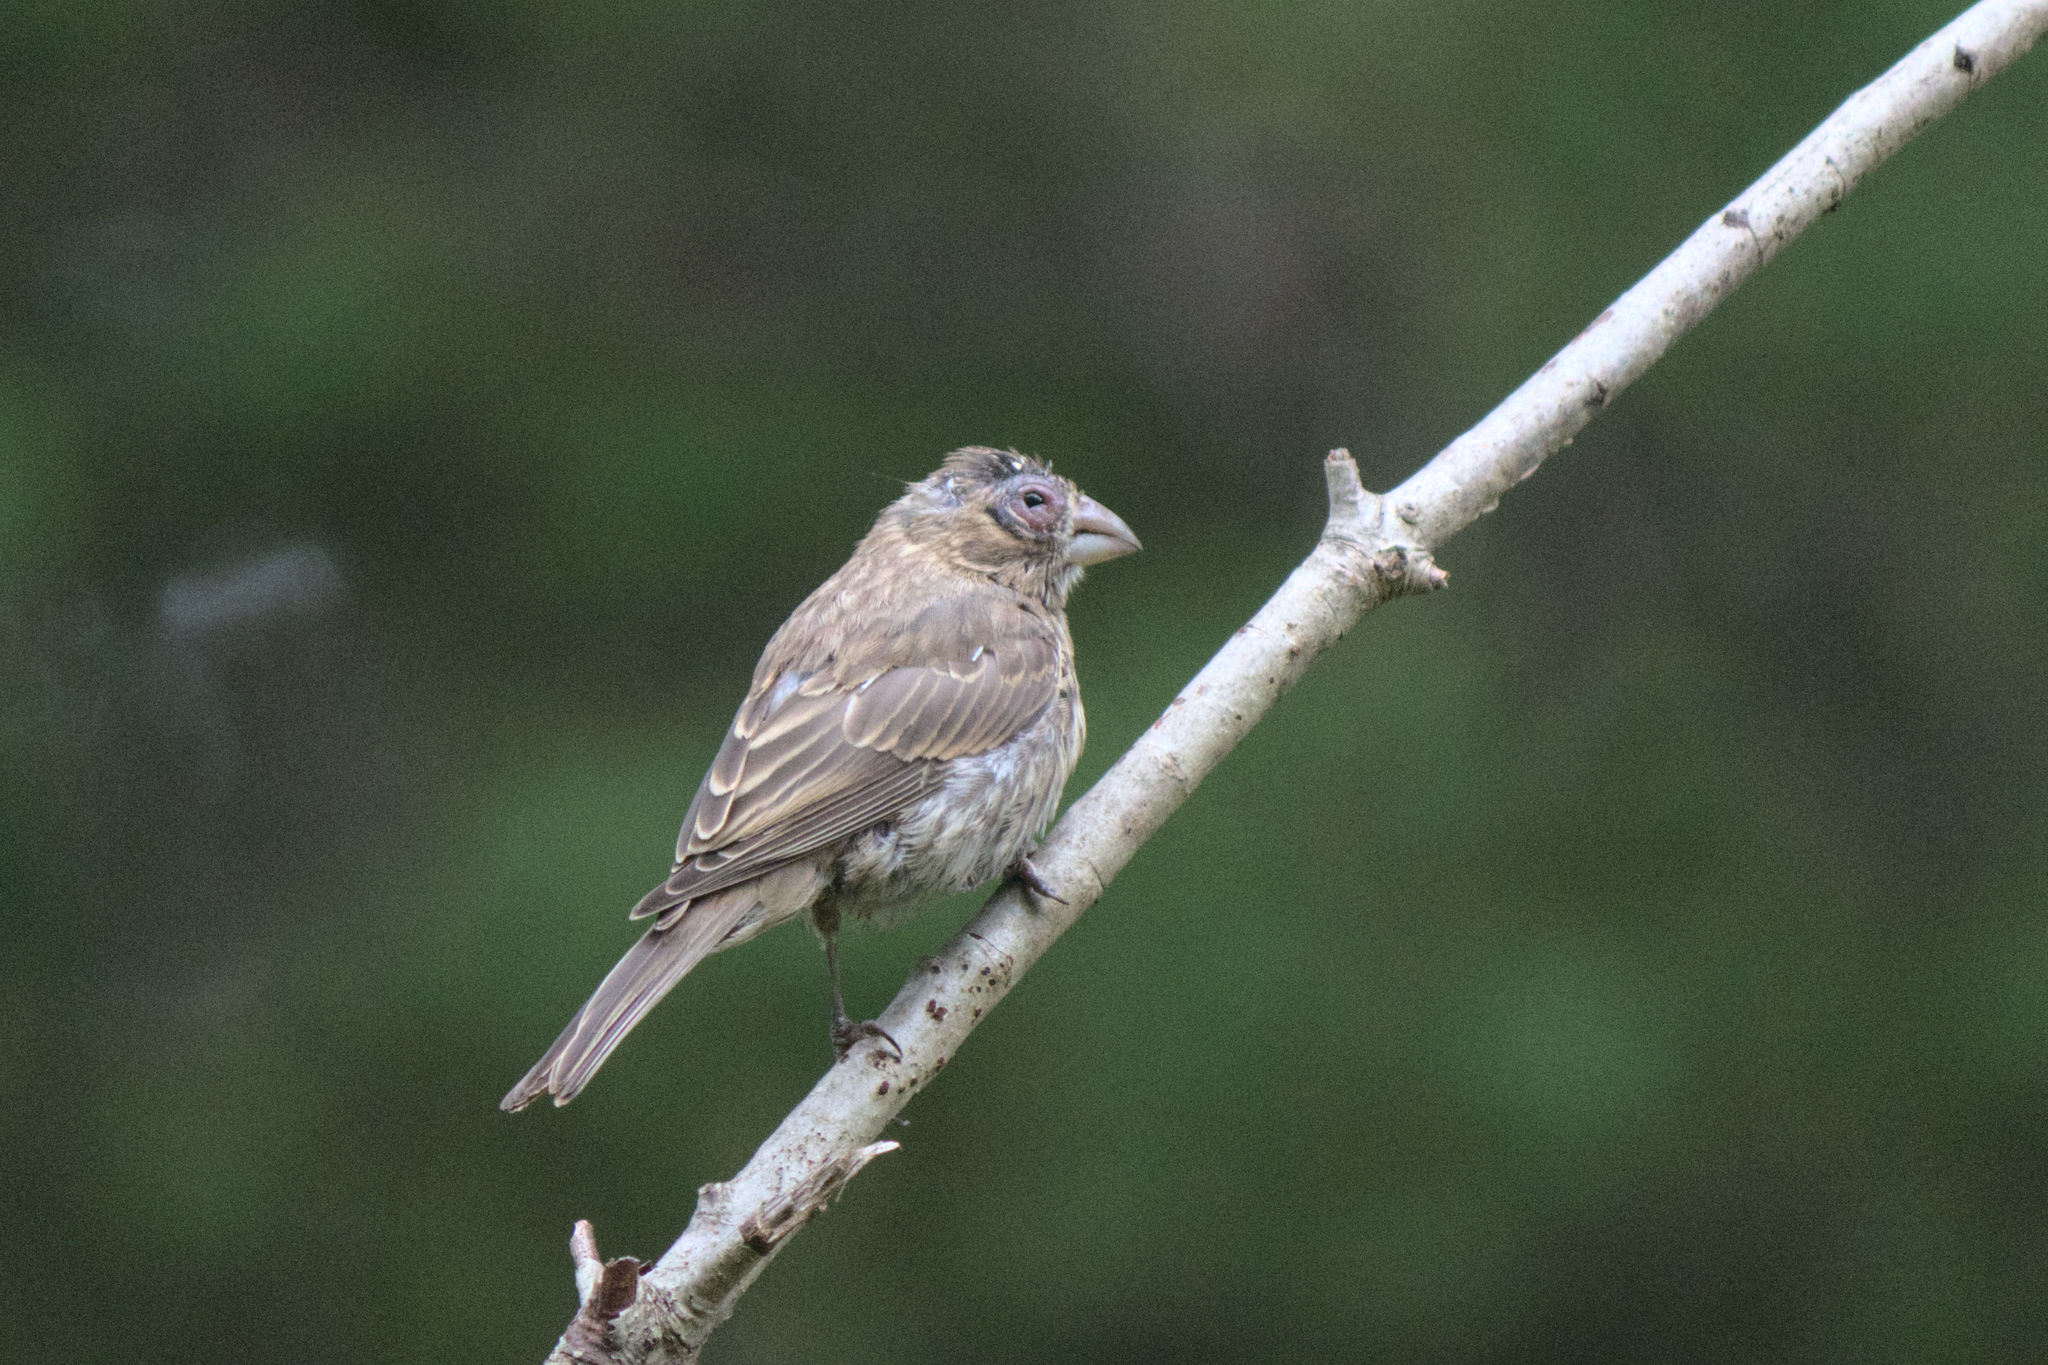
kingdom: Animalia
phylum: Chordata
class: Aves
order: Passeriformes
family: Fringillidae
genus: Haemorhous
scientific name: Haemorhous mexicanus
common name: House finch
